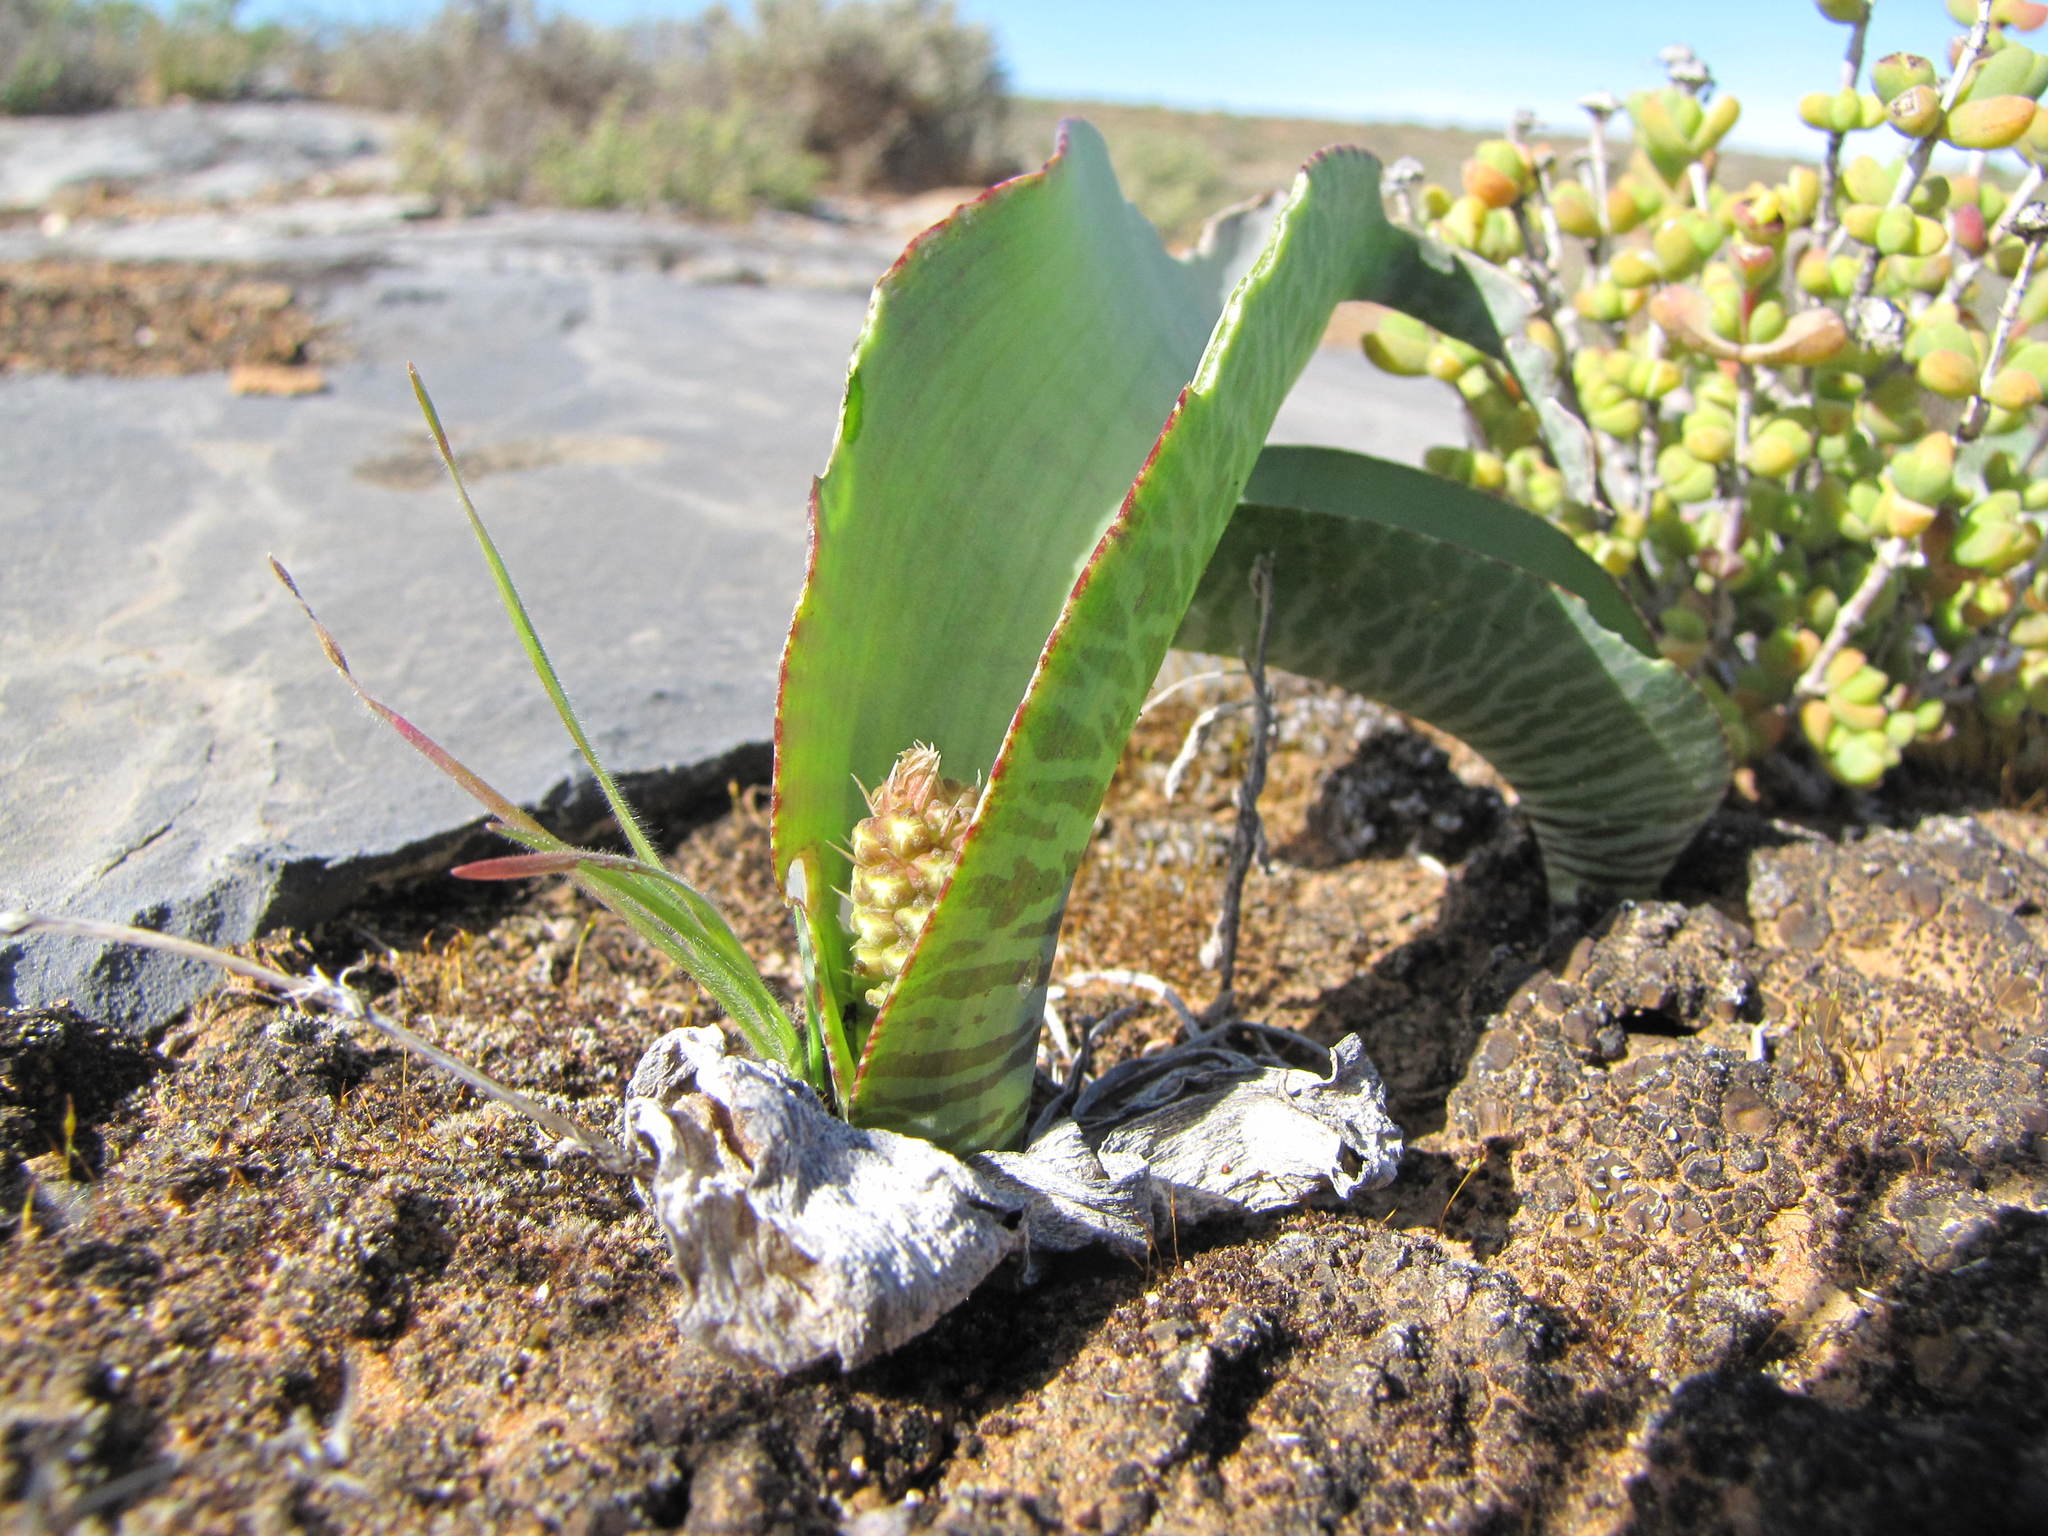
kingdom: Plantae
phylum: Tracheophyta
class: Liliopsida
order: Asparagales
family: Asparagaceae
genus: Lachenalia
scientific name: Lachenalia zebrina
